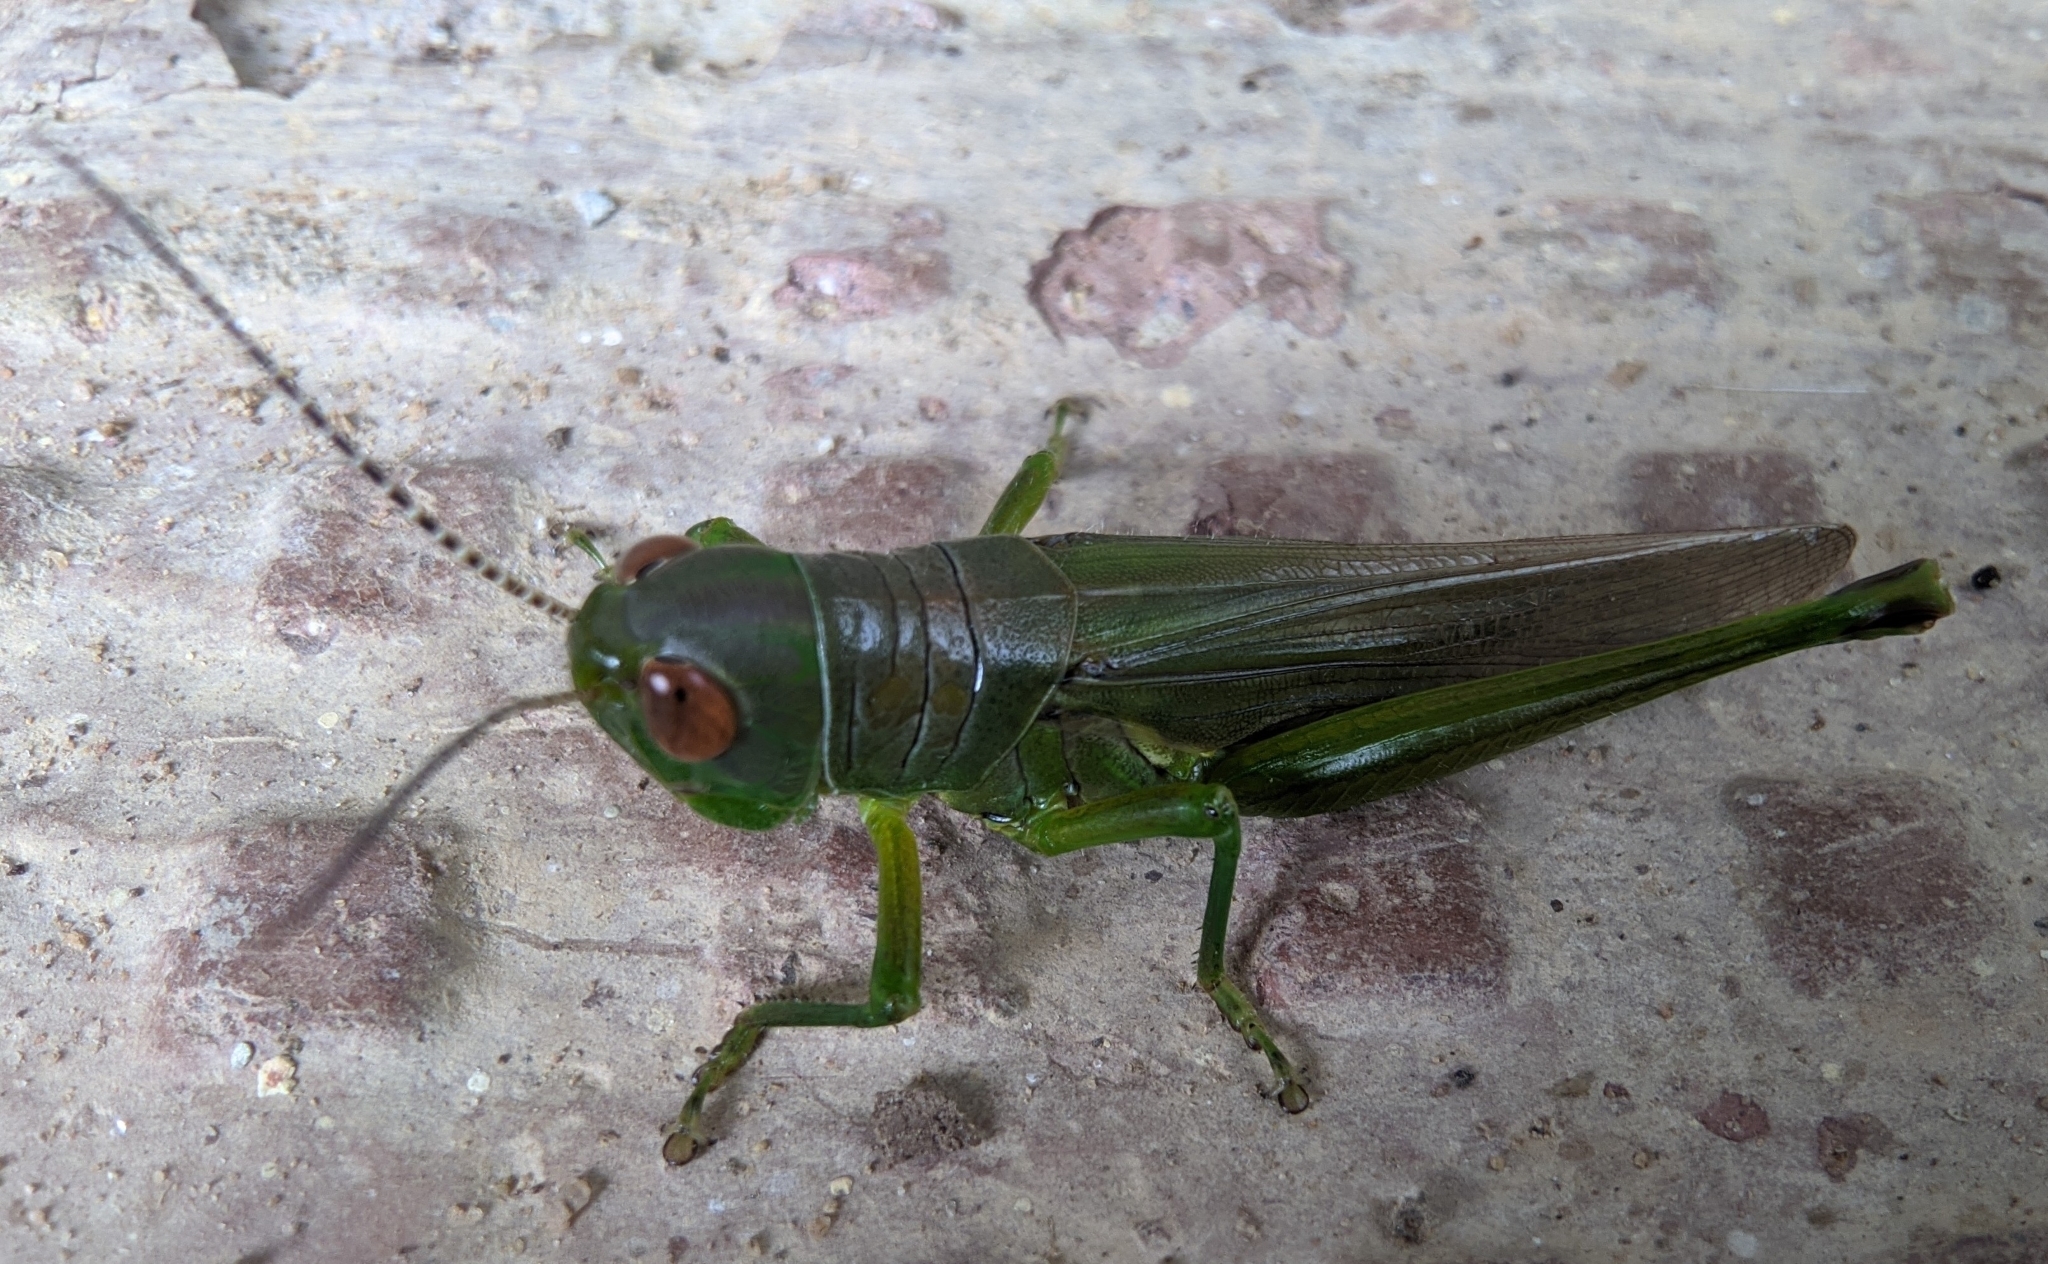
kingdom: Animalia
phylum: Arthropoda
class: Insecta
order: Orthoptera
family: Acrididae
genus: Hieroglyphus
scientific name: Hieroglyphus banian
